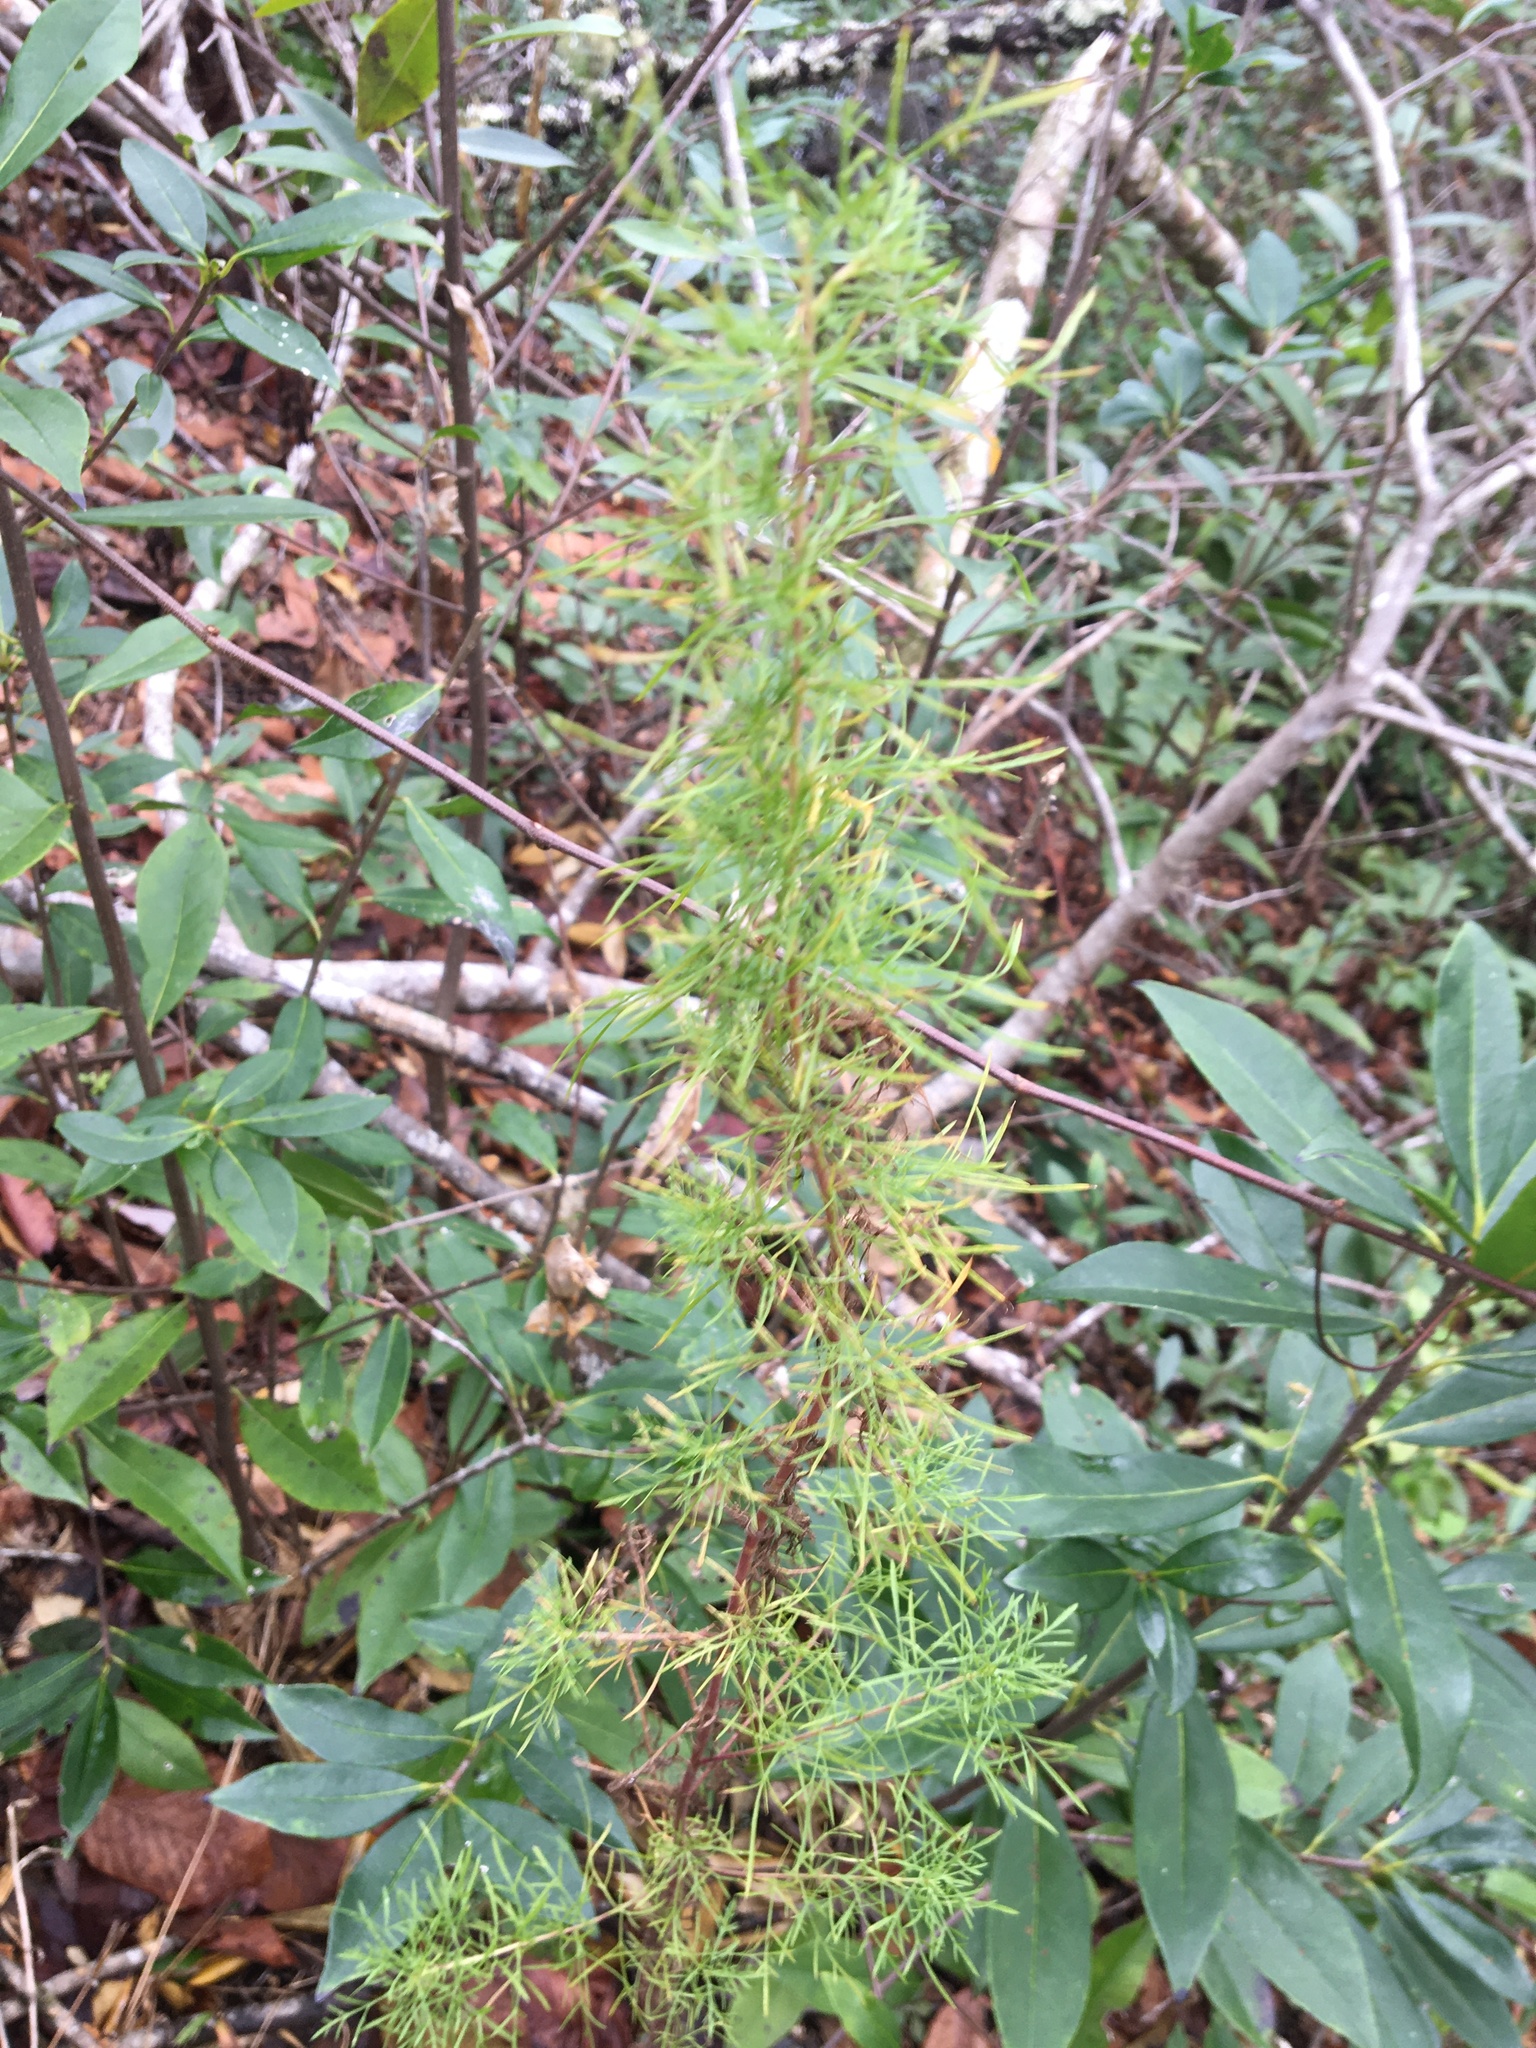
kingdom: Plantae
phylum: Tracheophyta
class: Magnoliopsida
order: Asterales
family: Asteraceae
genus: Eupatorium
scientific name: Eupatorium capillifolium
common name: Dog-fennel
